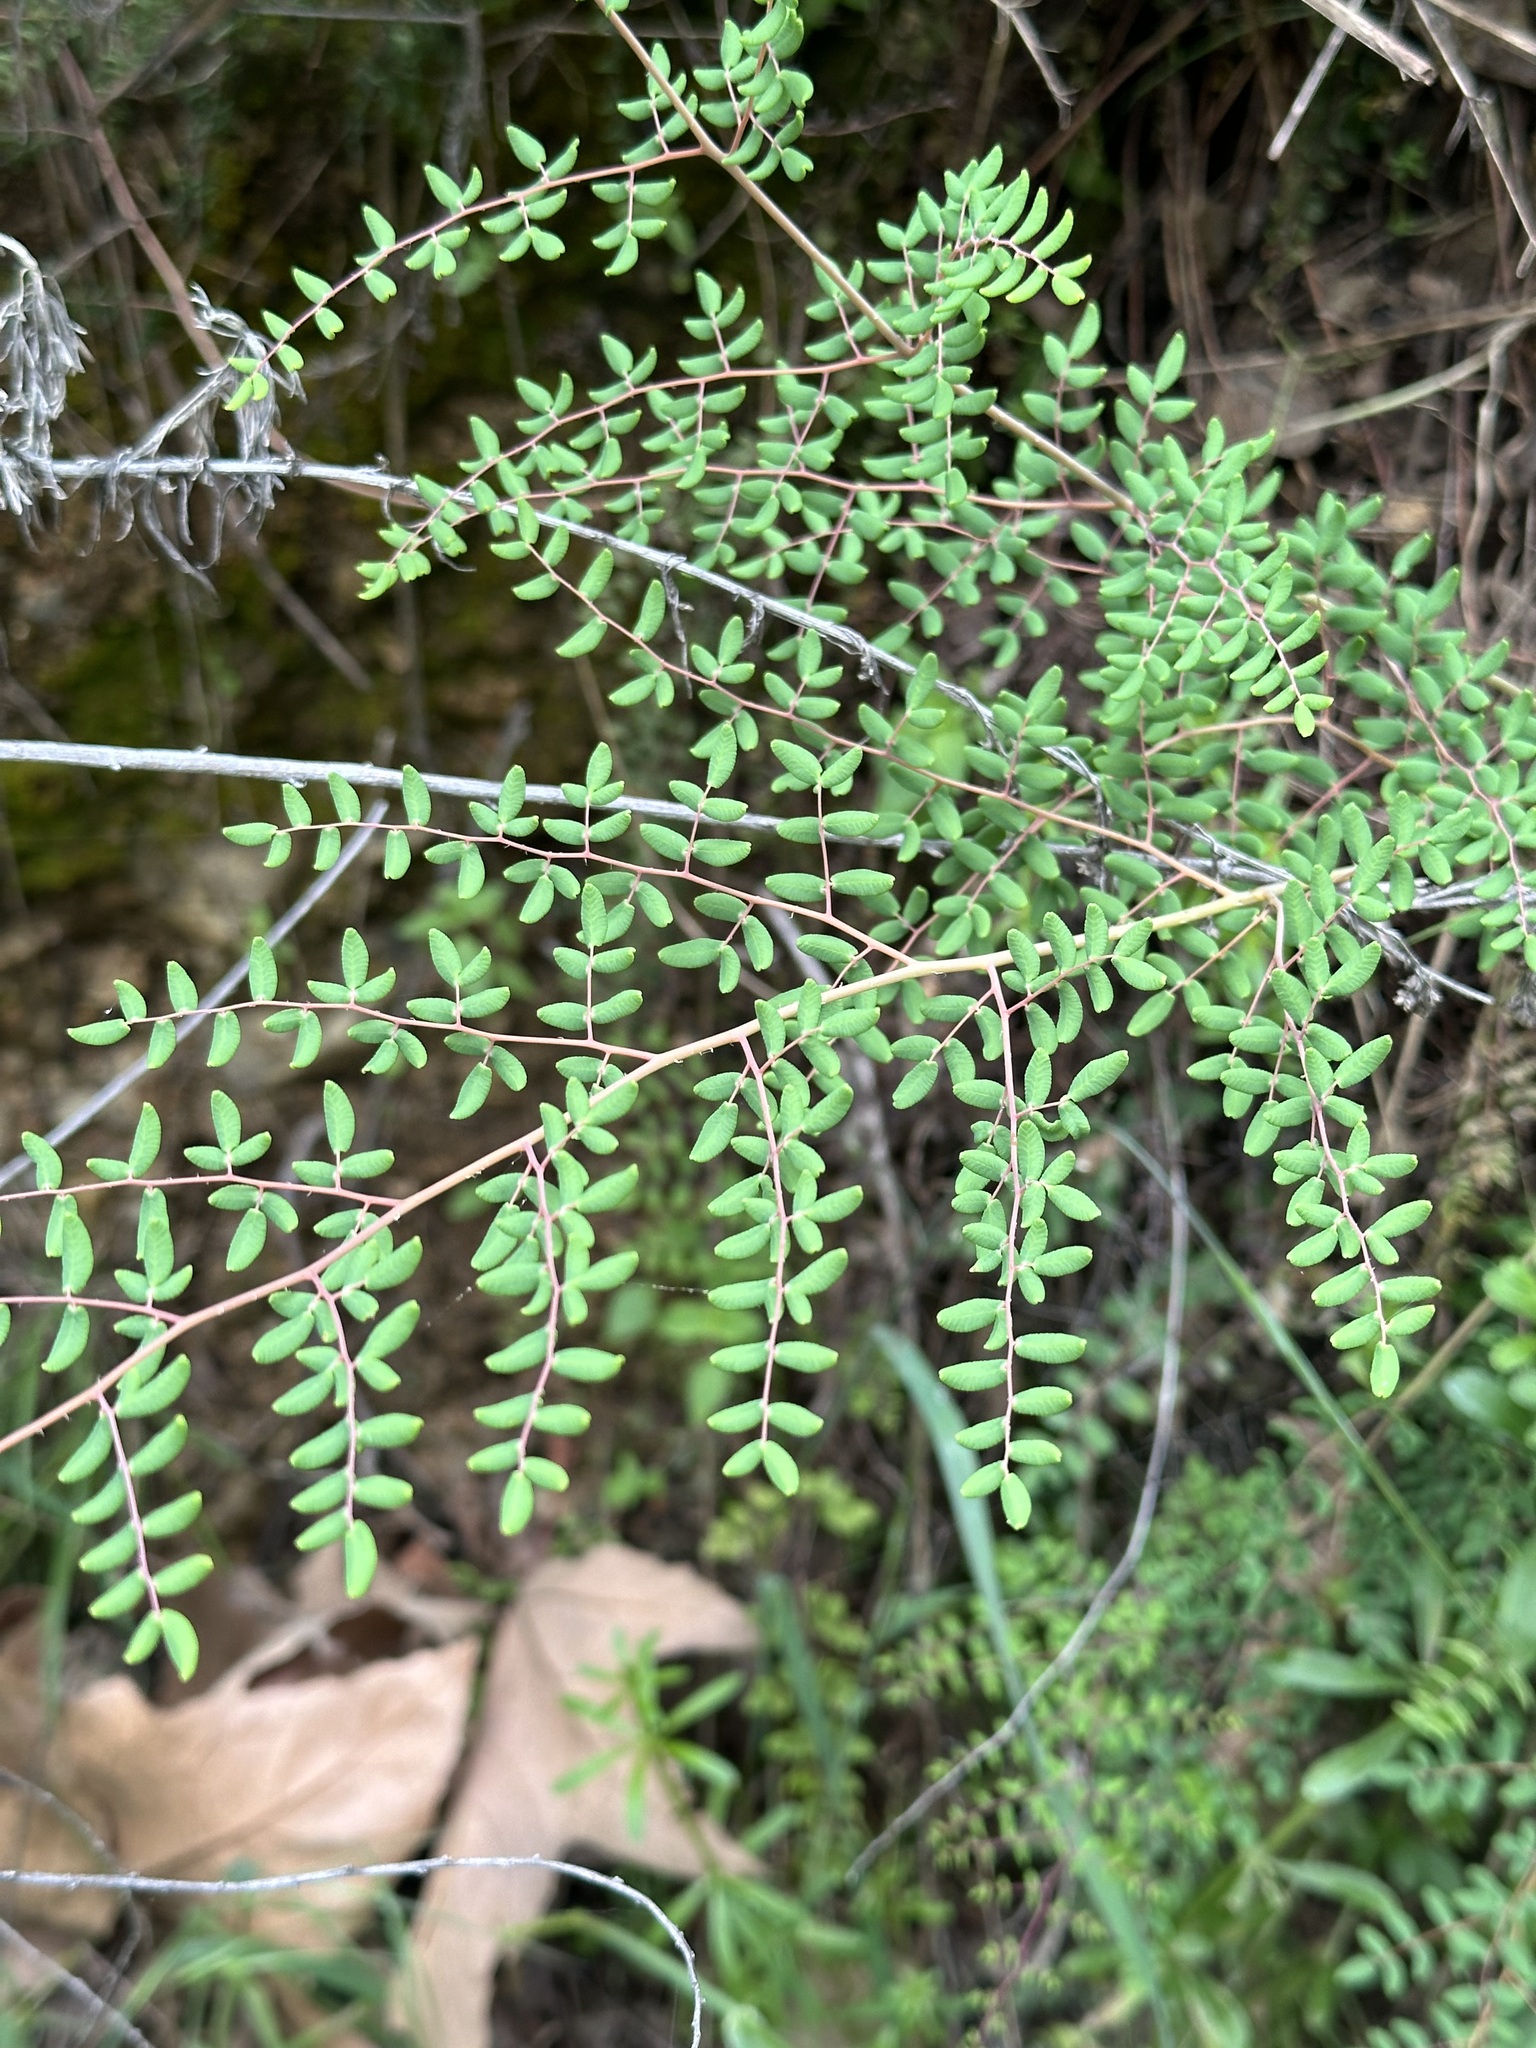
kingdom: Plantae
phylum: Tracheophyta
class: Polypodiopsida
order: Polypodiales
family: Pteridaceae
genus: Pellaea
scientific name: Pellaea andromedifolia
